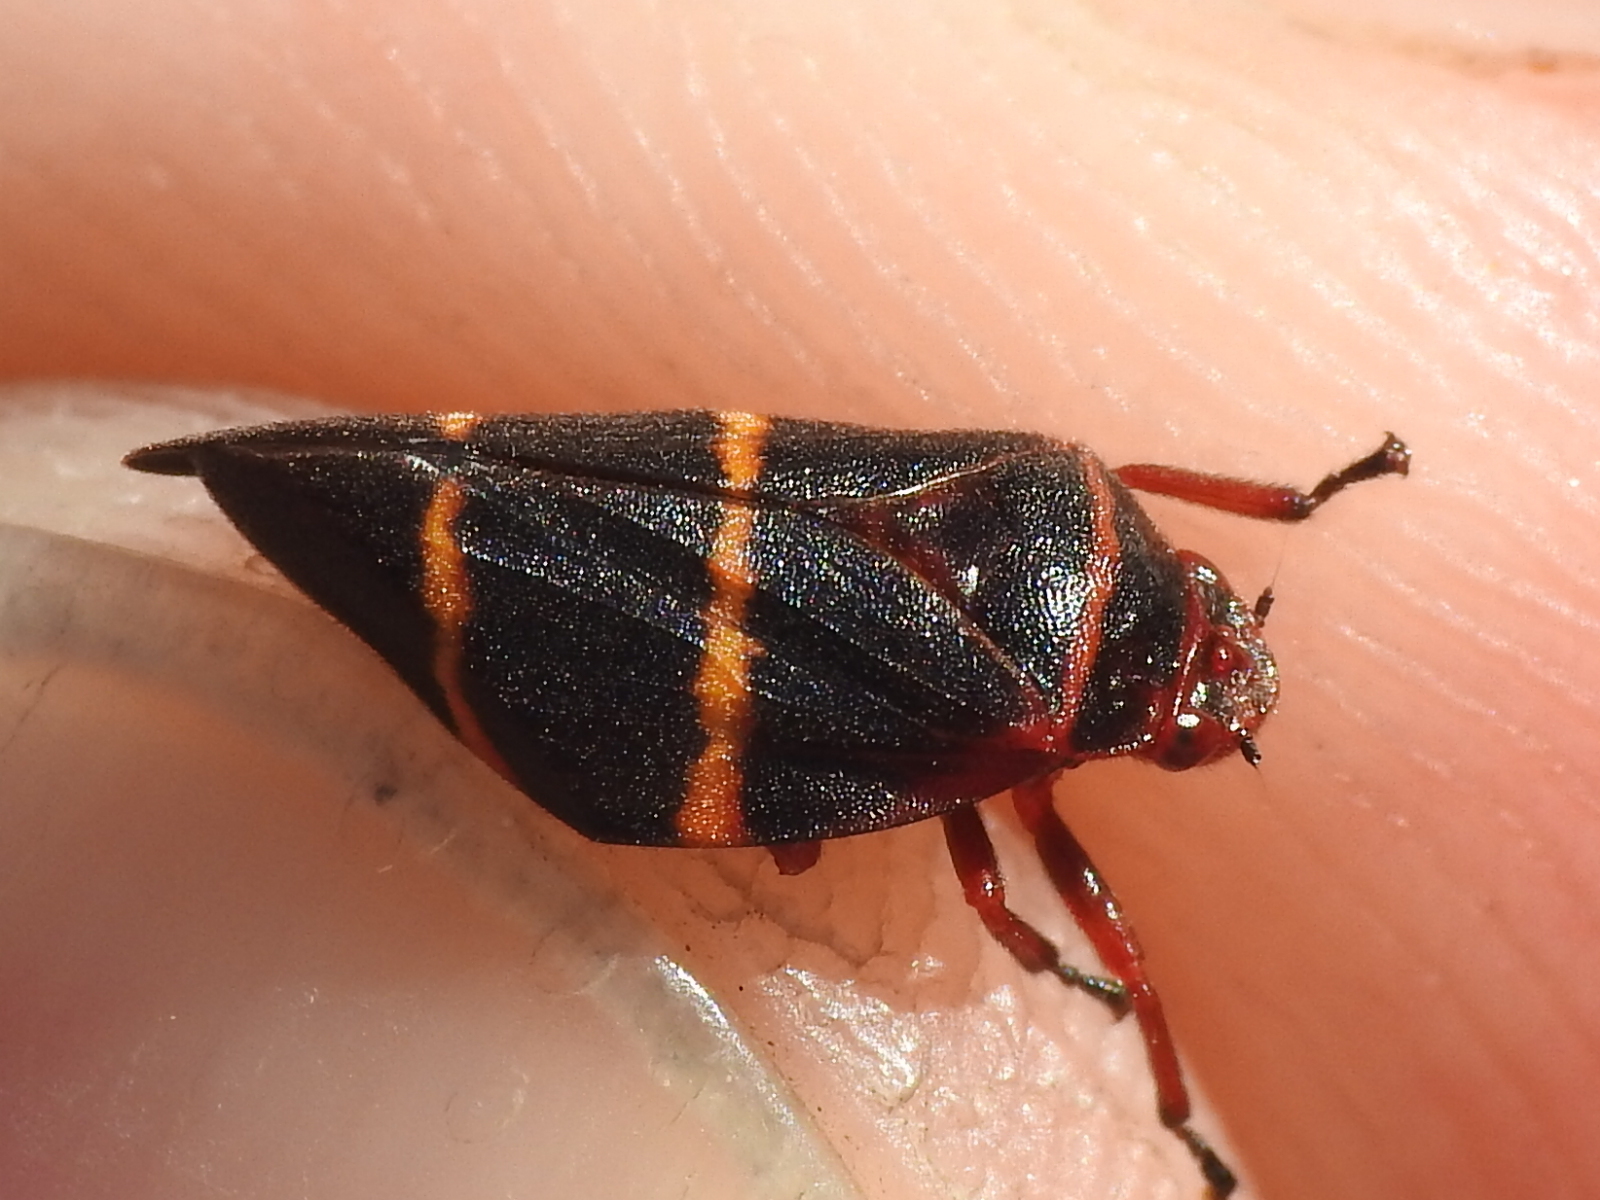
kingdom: Animalia
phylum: Arthropoda
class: Insecta
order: Hemiptera
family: Cercopidae
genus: Prosapia
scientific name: Prosapia bicincta
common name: Twolined spittlebug
